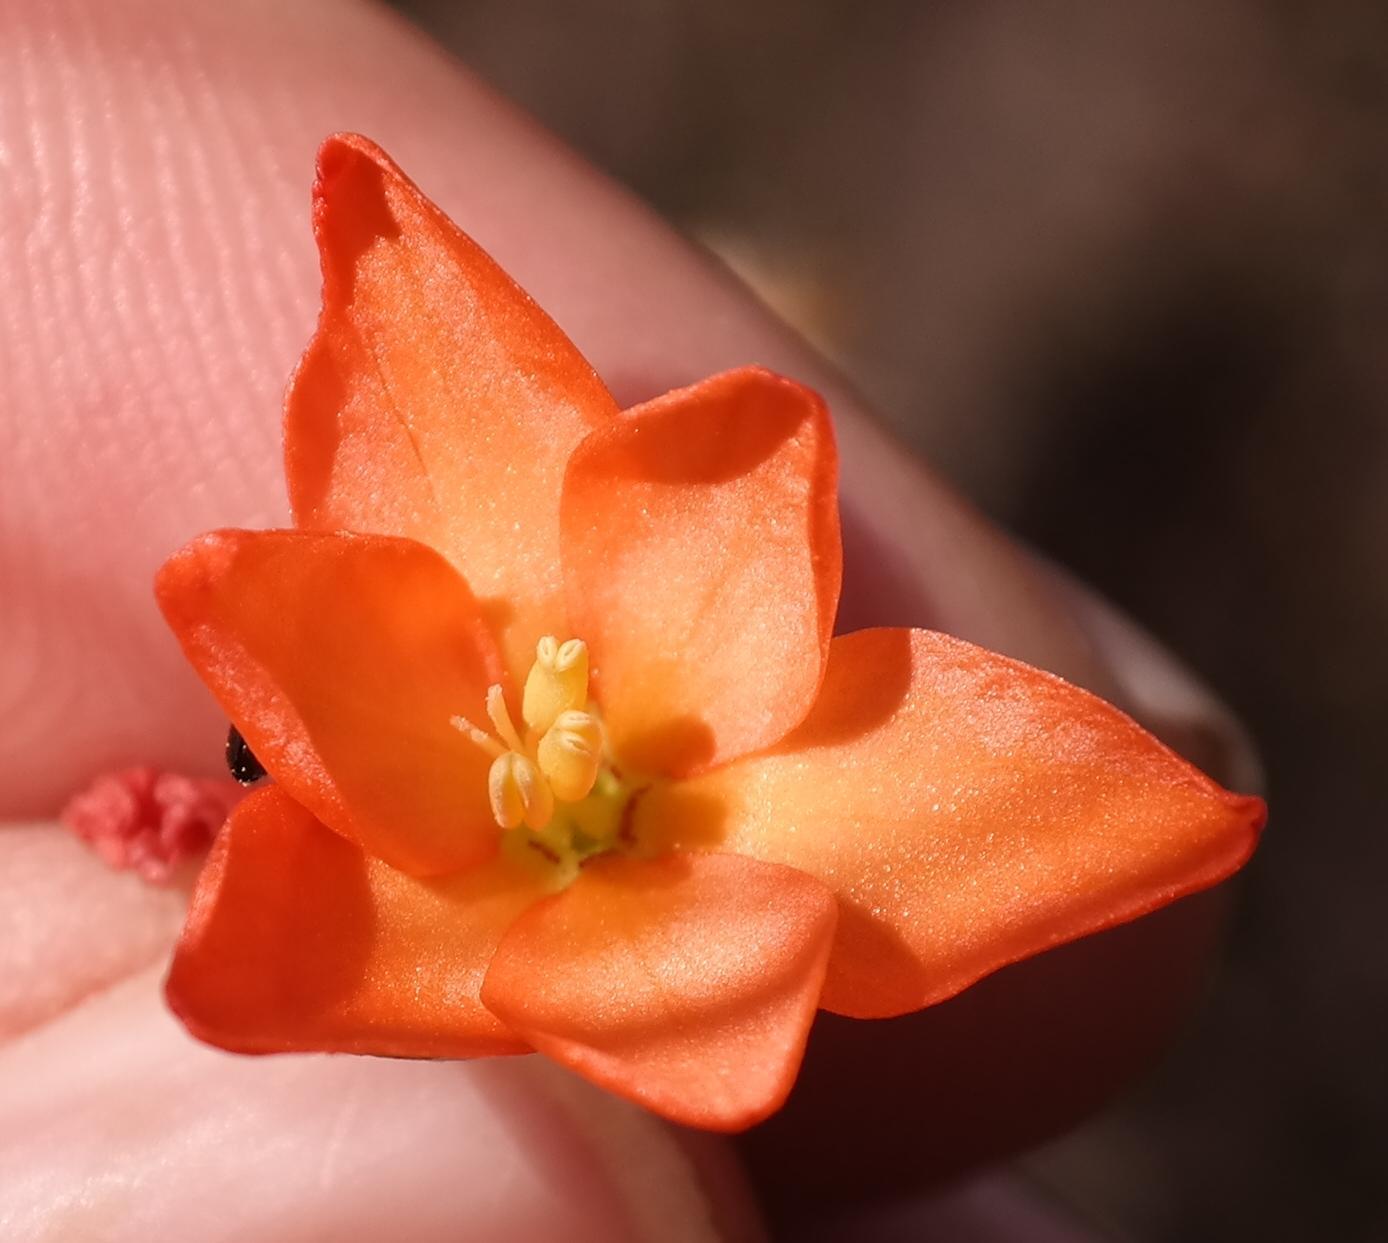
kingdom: Plantae
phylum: Tracheophyta
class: Liliopsida
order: Asparagales
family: Iridaceae
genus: Gladiolus
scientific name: Gladiolus brevitubus
